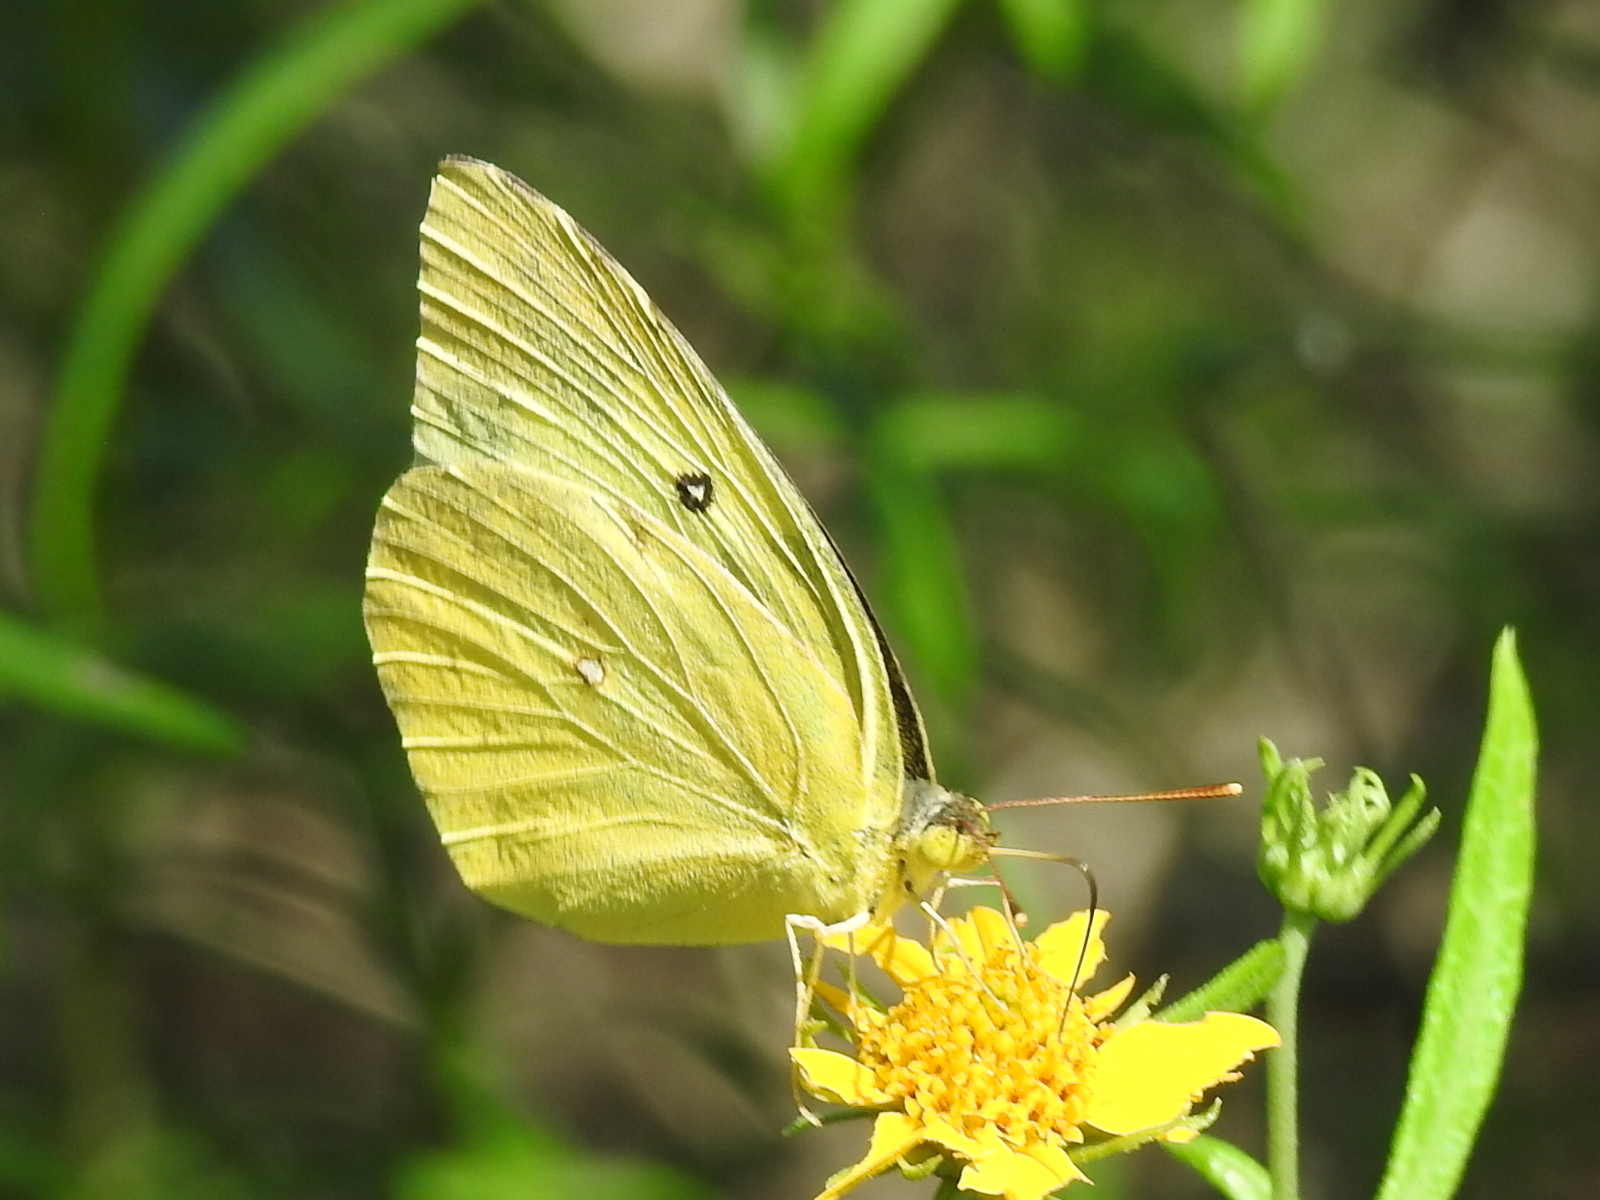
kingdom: Animalia
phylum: Arthropoda
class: Insecta
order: Lepidoptera
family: Pieridae
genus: Zerene
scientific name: Zerene cesonia
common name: Southern dogface
